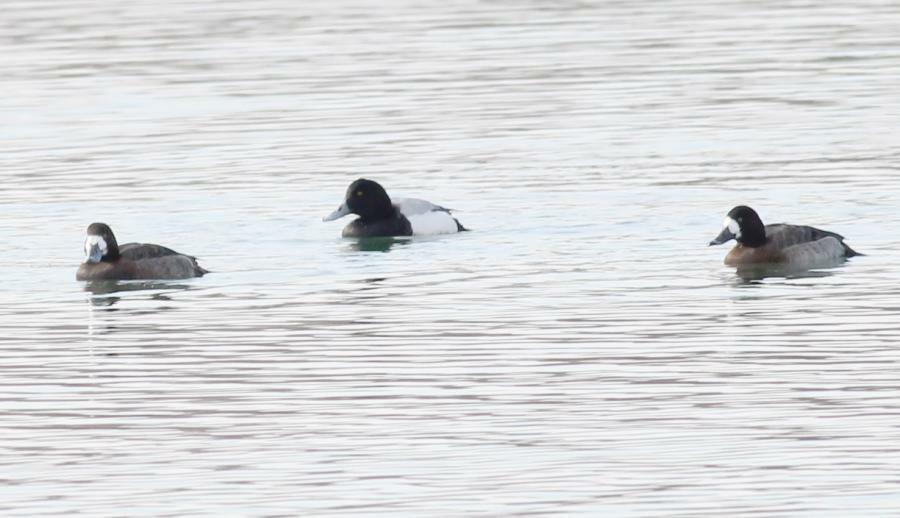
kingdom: Animalia
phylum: Chordata
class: Aves
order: Anseriformes
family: Anatidae
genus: Aythya
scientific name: Aythya marila
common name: Greater scaup
